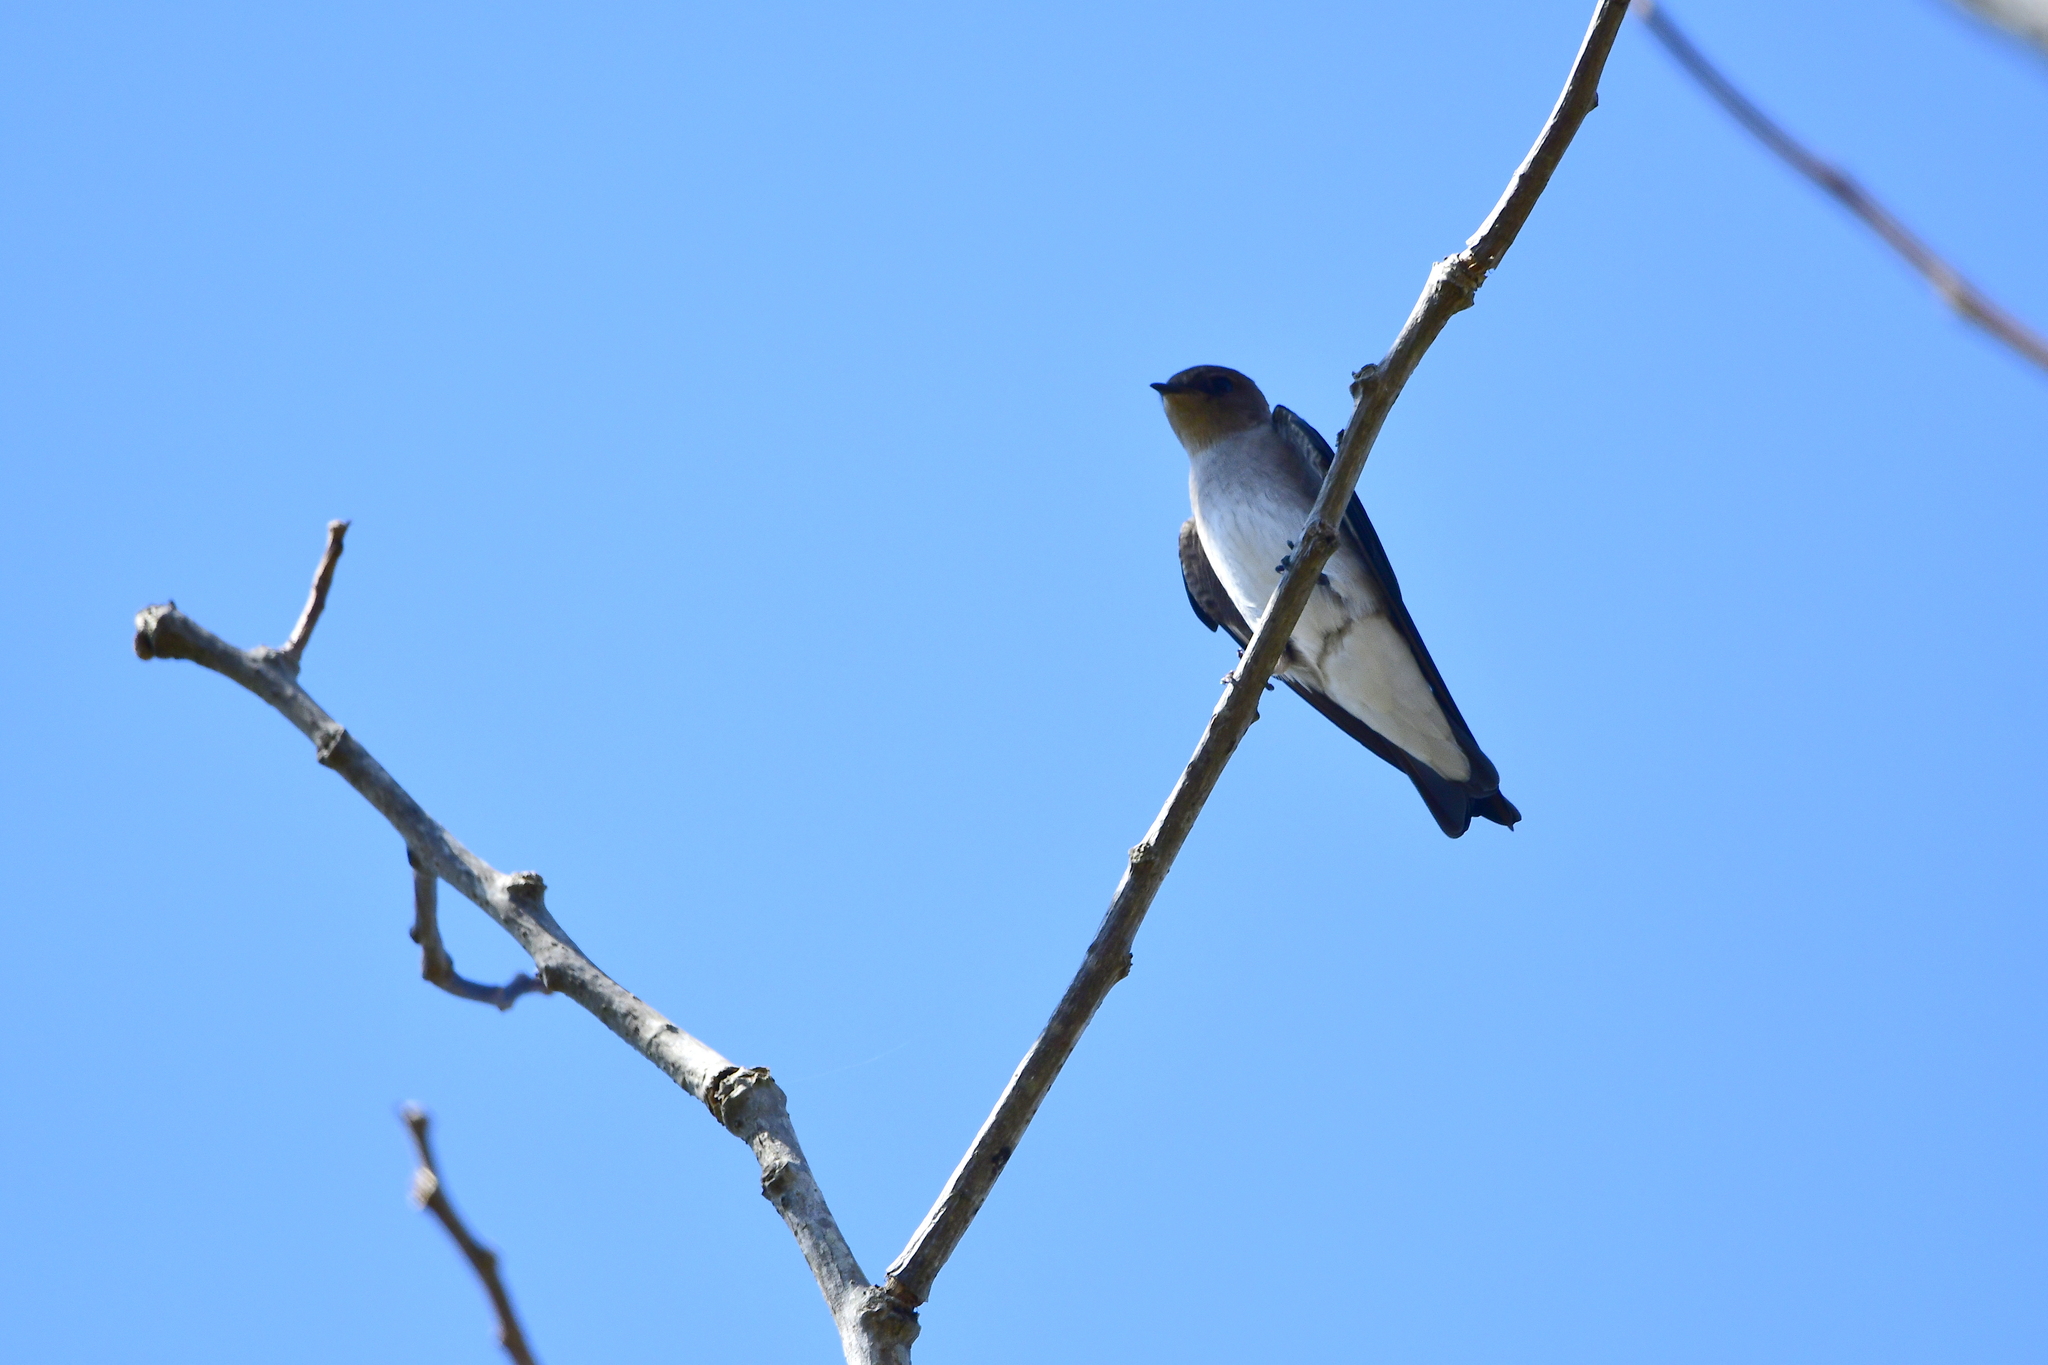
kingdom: Animalia
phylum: Chordata
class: Aves
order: Passeriformes
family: Hirundinidae
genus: Stelgidopteryx
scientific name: Stelgidopteryx serripennis
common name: Northern rough-winged swallow
